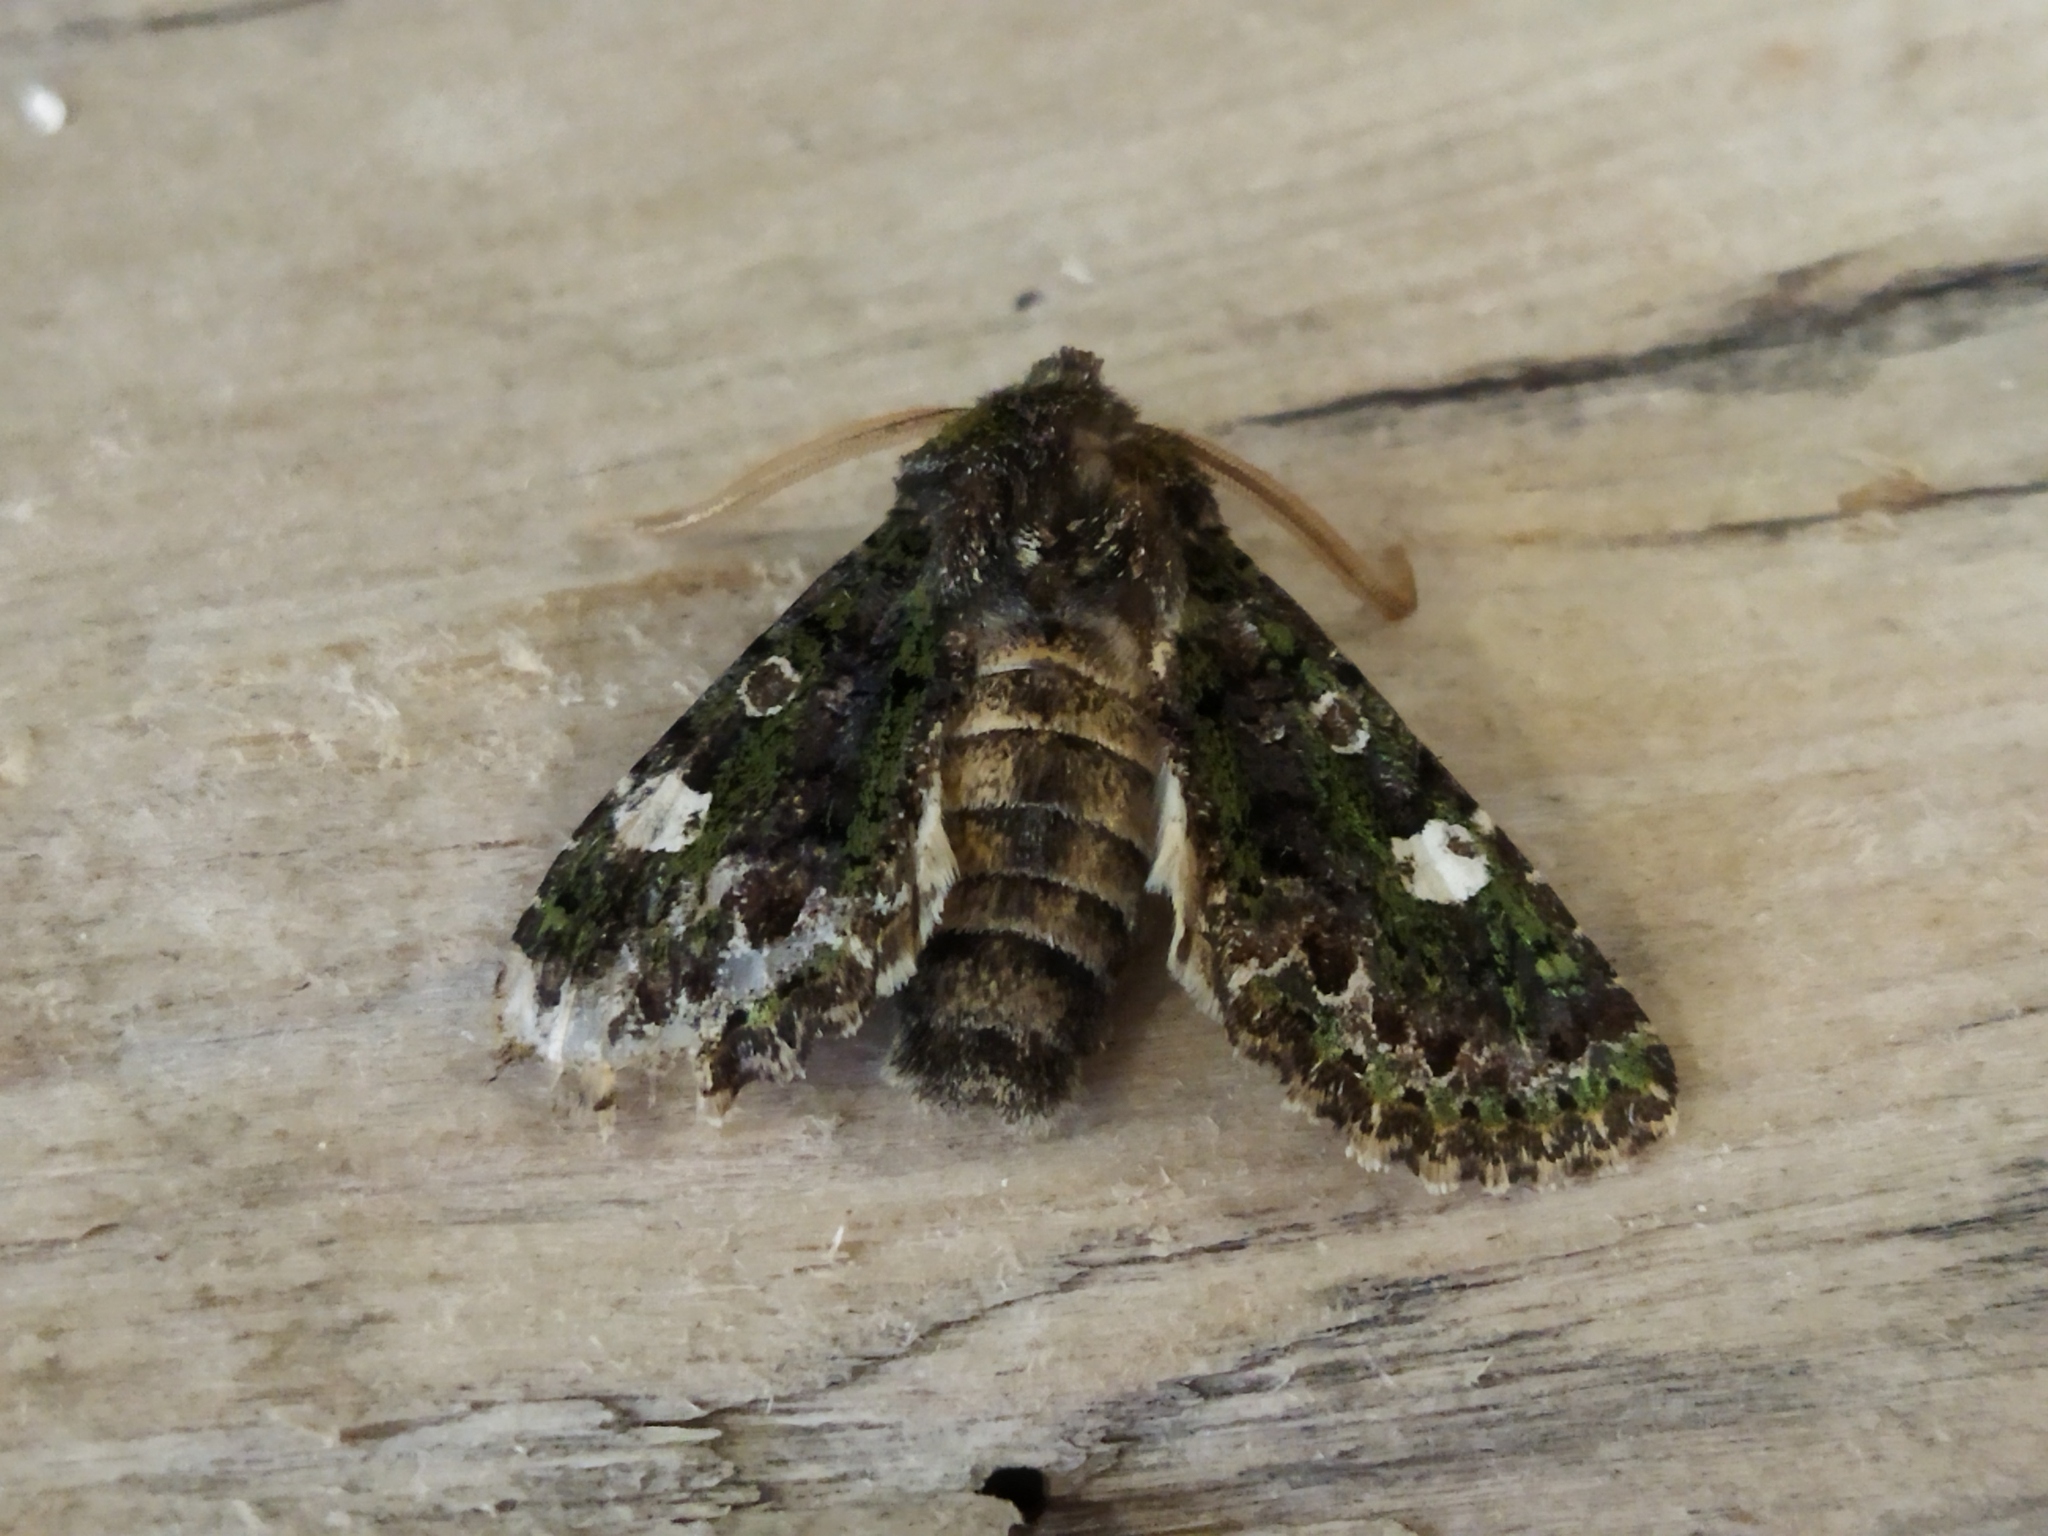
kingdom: Animalia
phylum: Arthropoda
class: Insecta
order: Lepidoptera
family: Noctuidae
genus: Valeria
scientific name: Valeria oleagina
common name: Green-brindled dot
